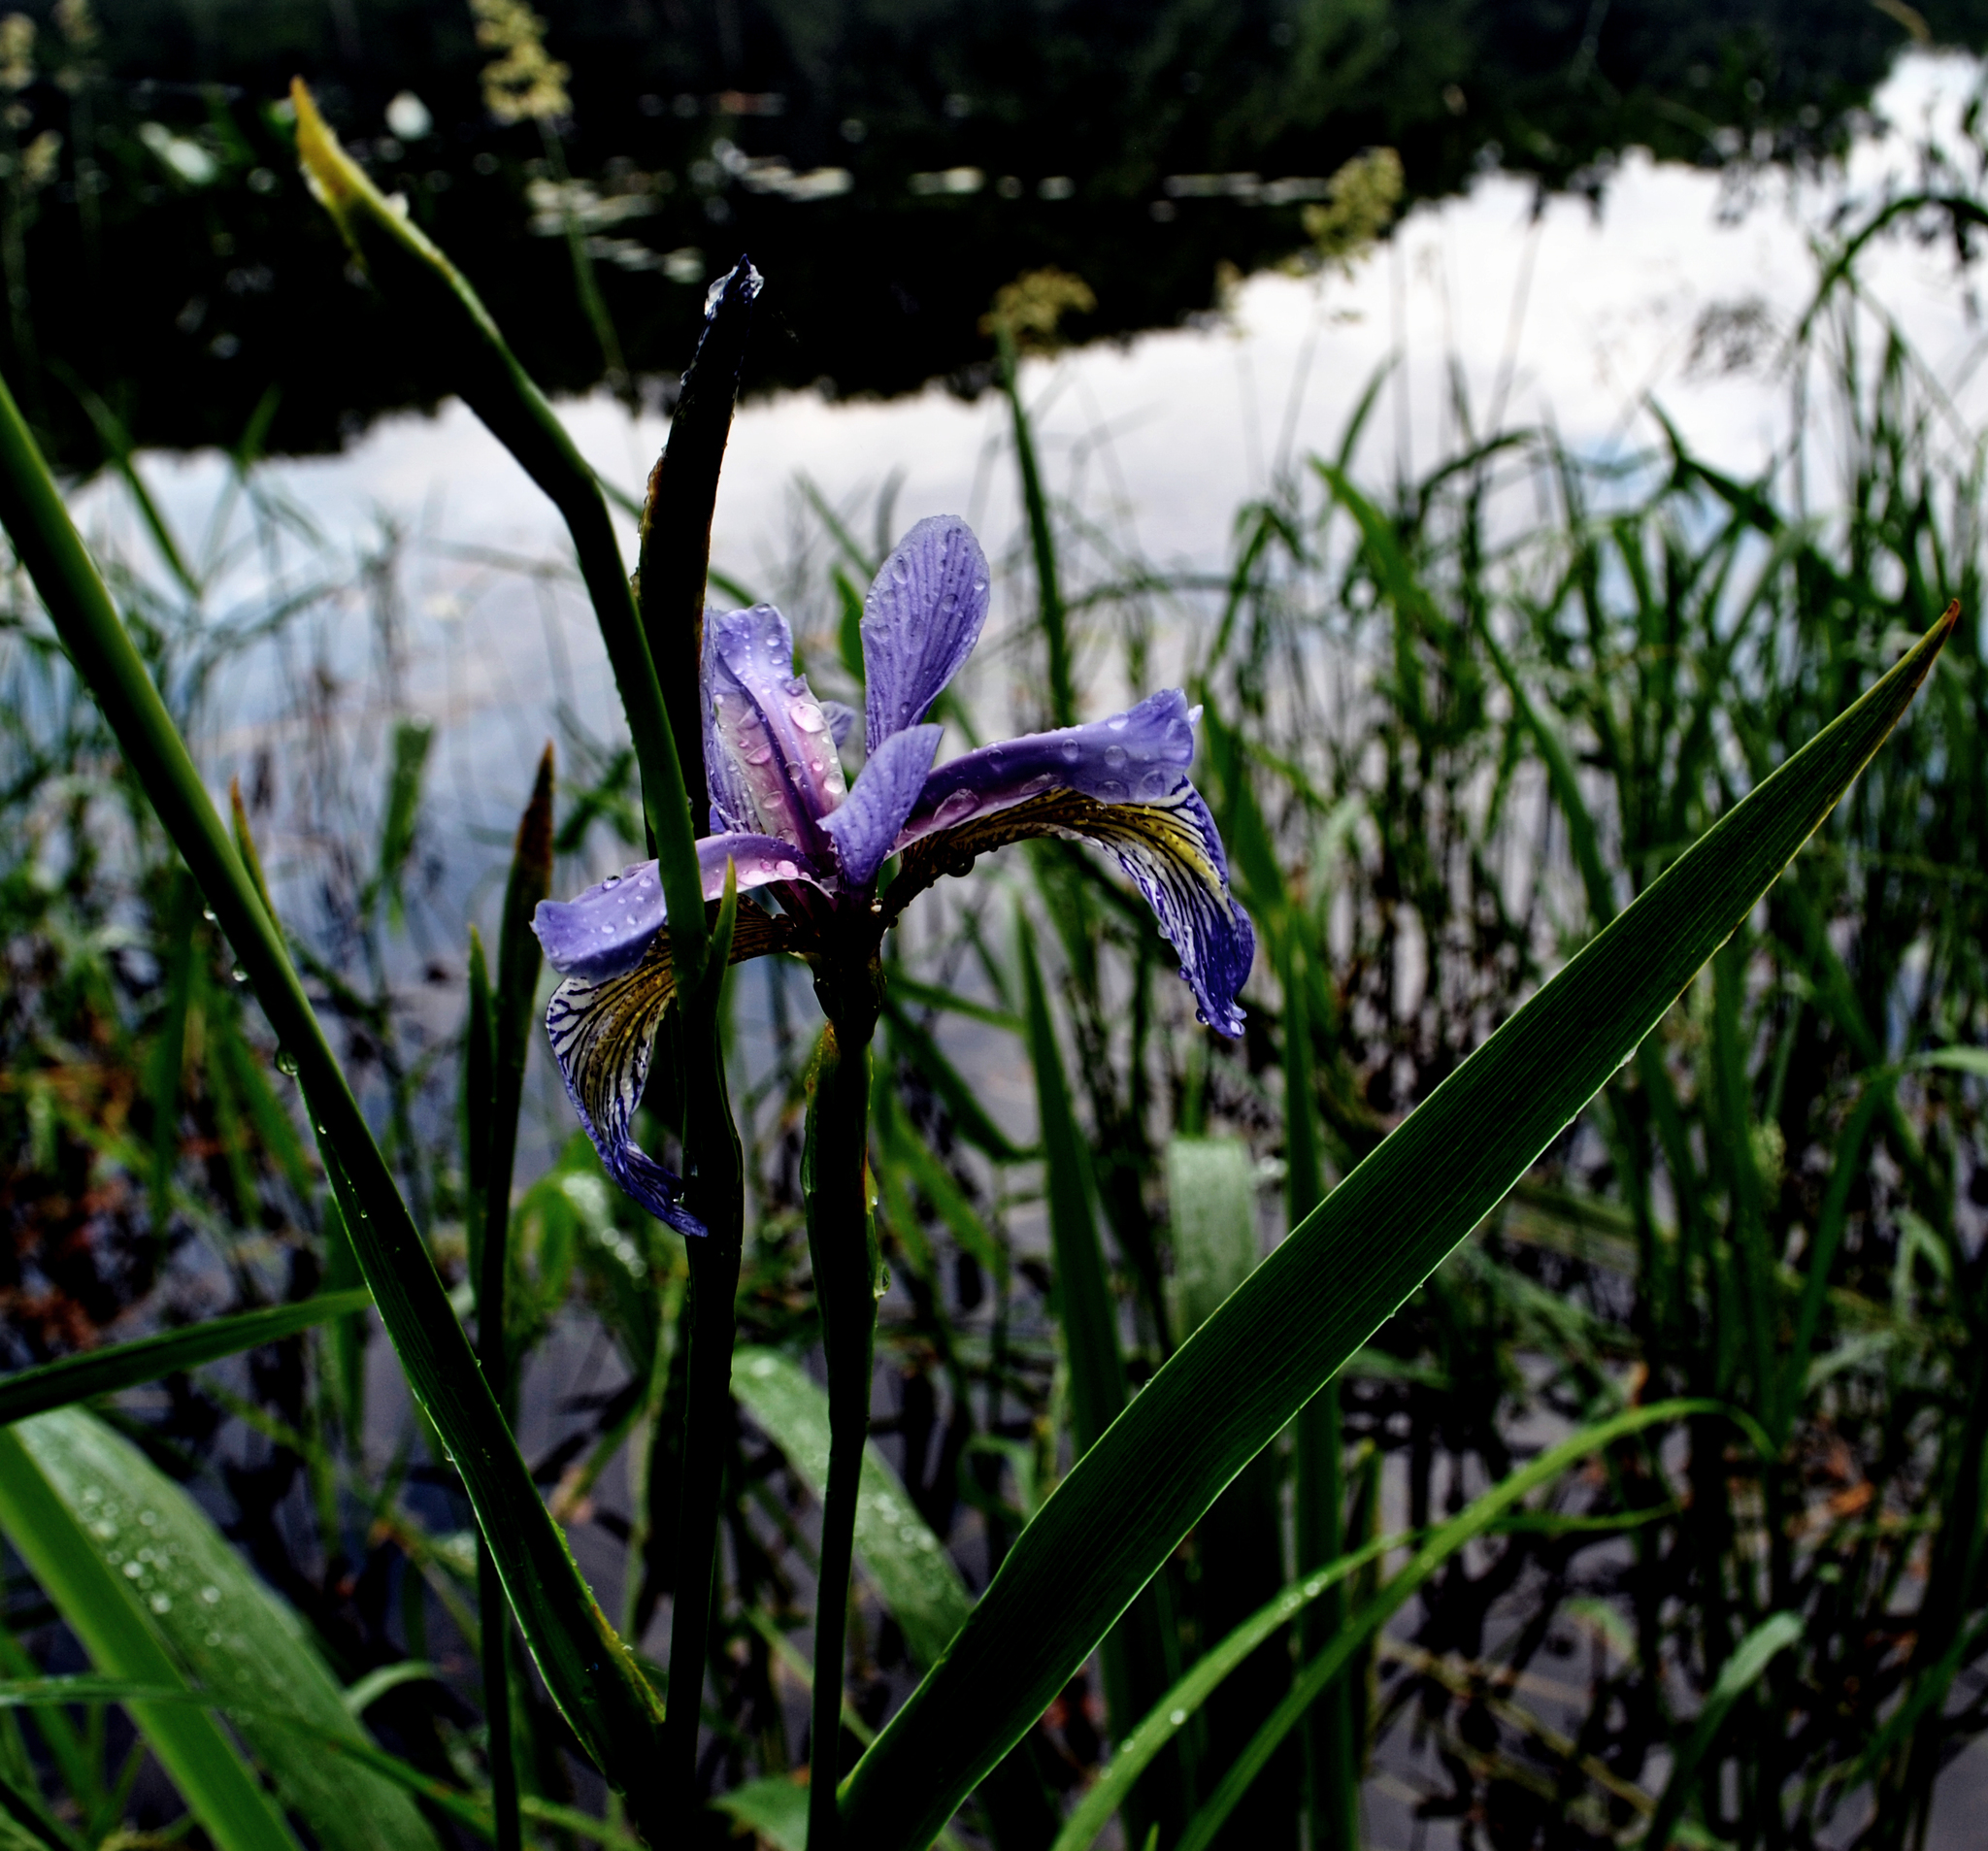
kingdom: Plantae
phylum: Tracheophyta
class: Liliopsida
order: Asparagales
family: Iridaceae
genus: Iris
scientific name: Iris versicolor
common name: Purple iris
